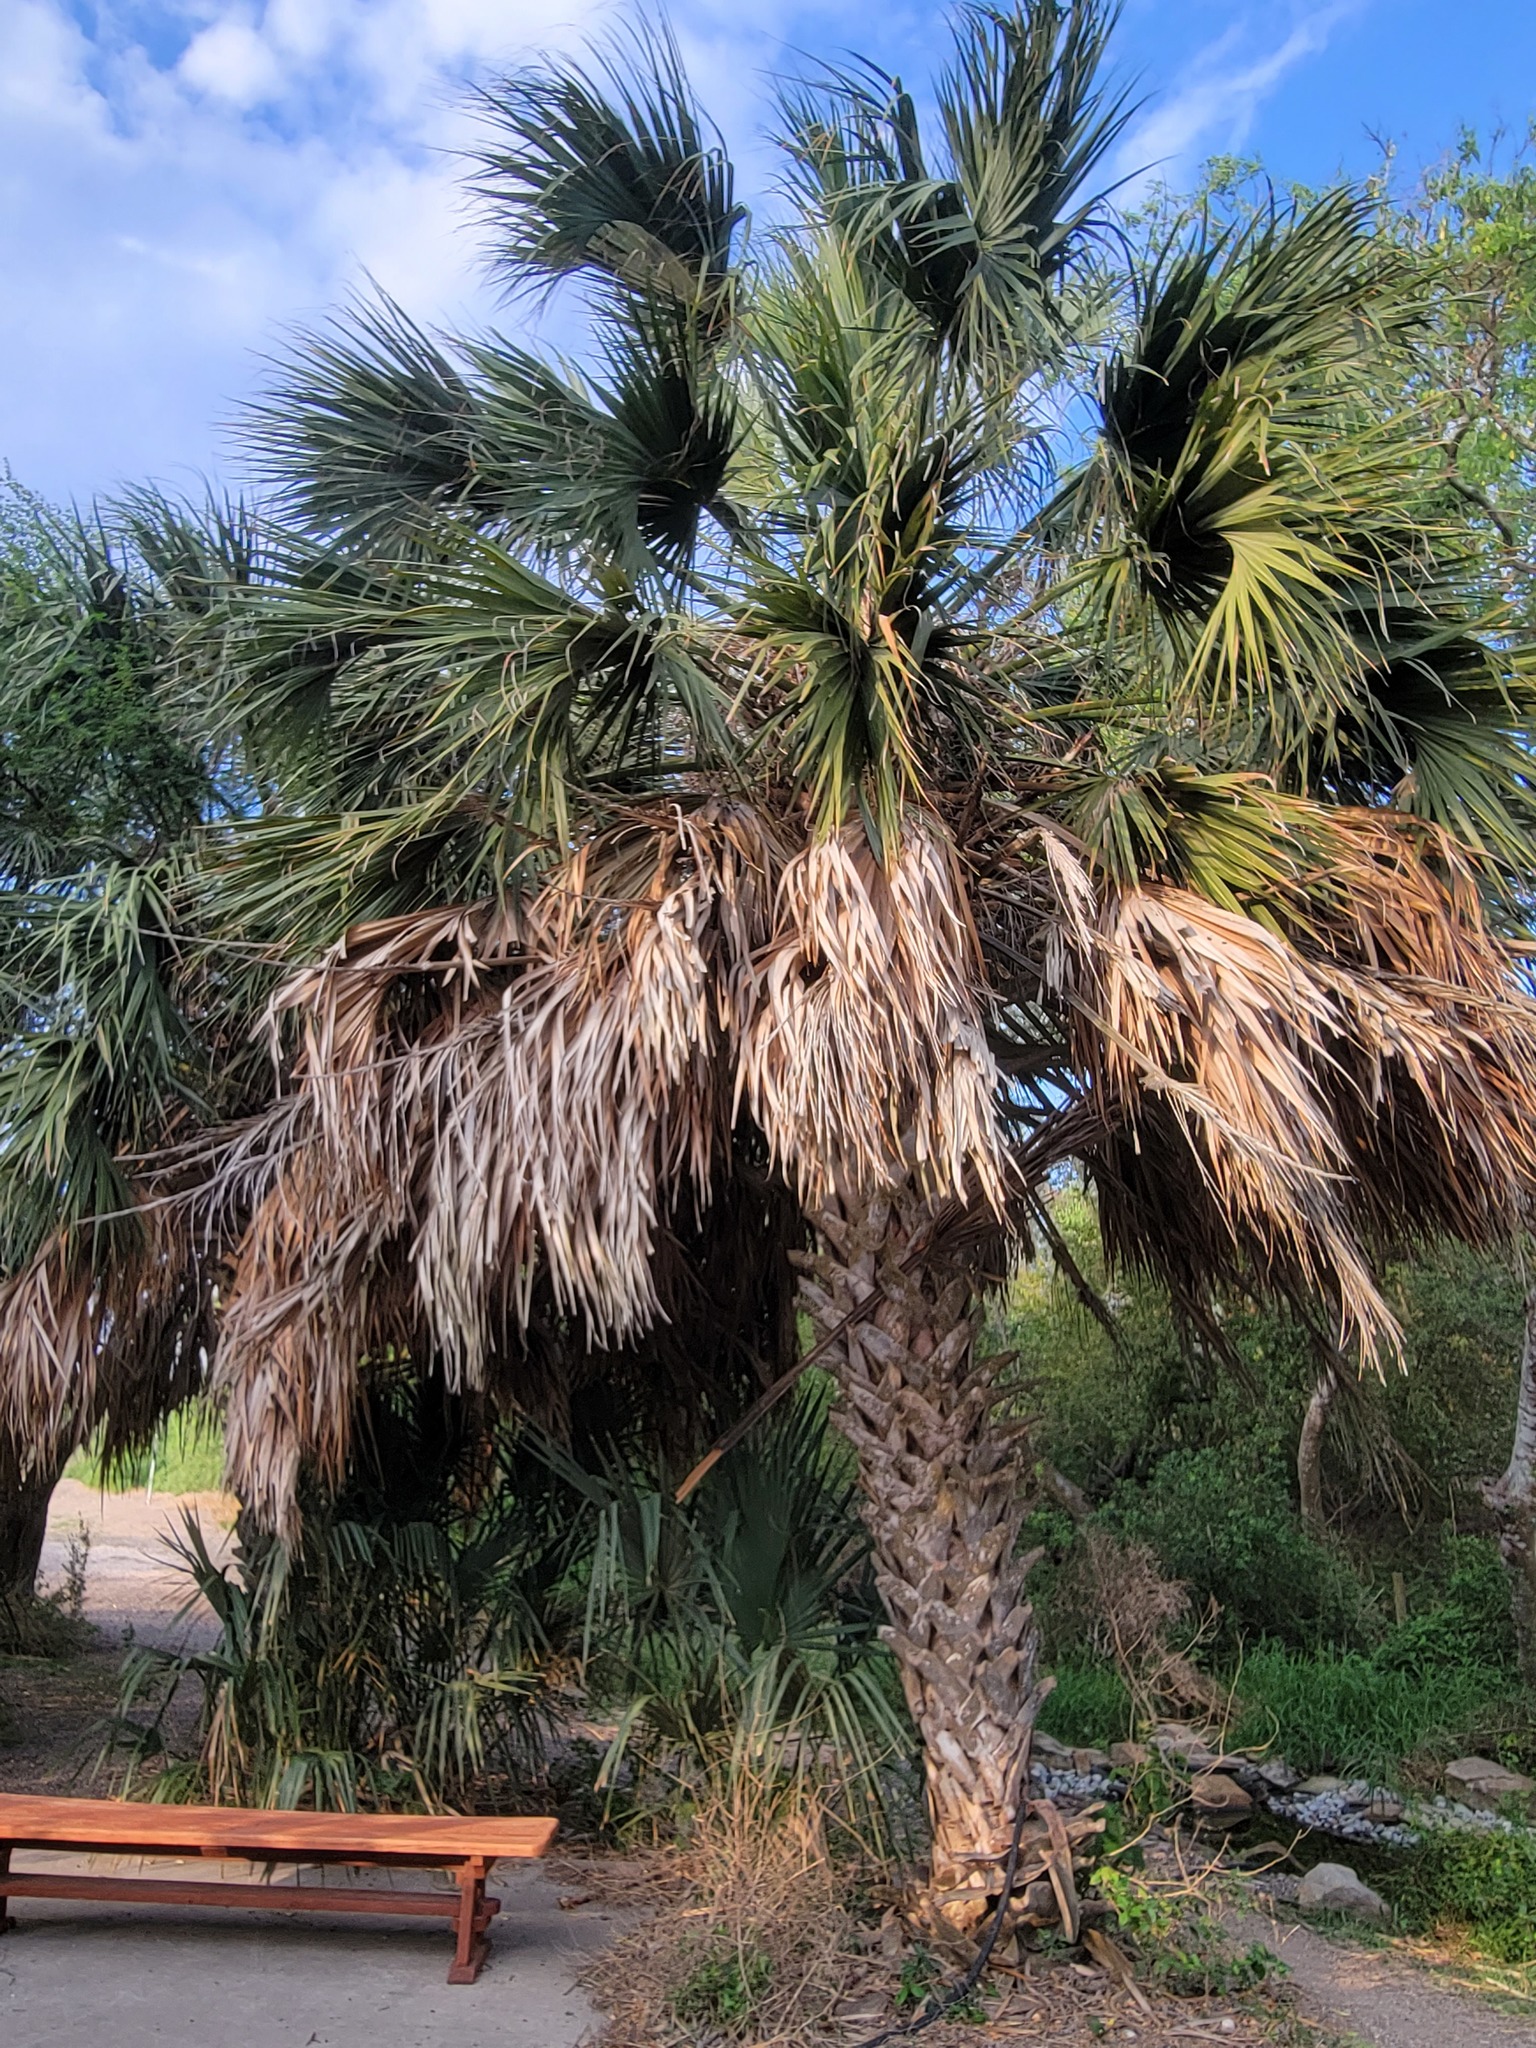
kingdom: Plantae
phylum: Tracheophyta
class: Liliopsida
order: Arecales
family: Arecaceae
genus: Sabal
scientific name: Sabal mexicana
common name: Texas palmetto
